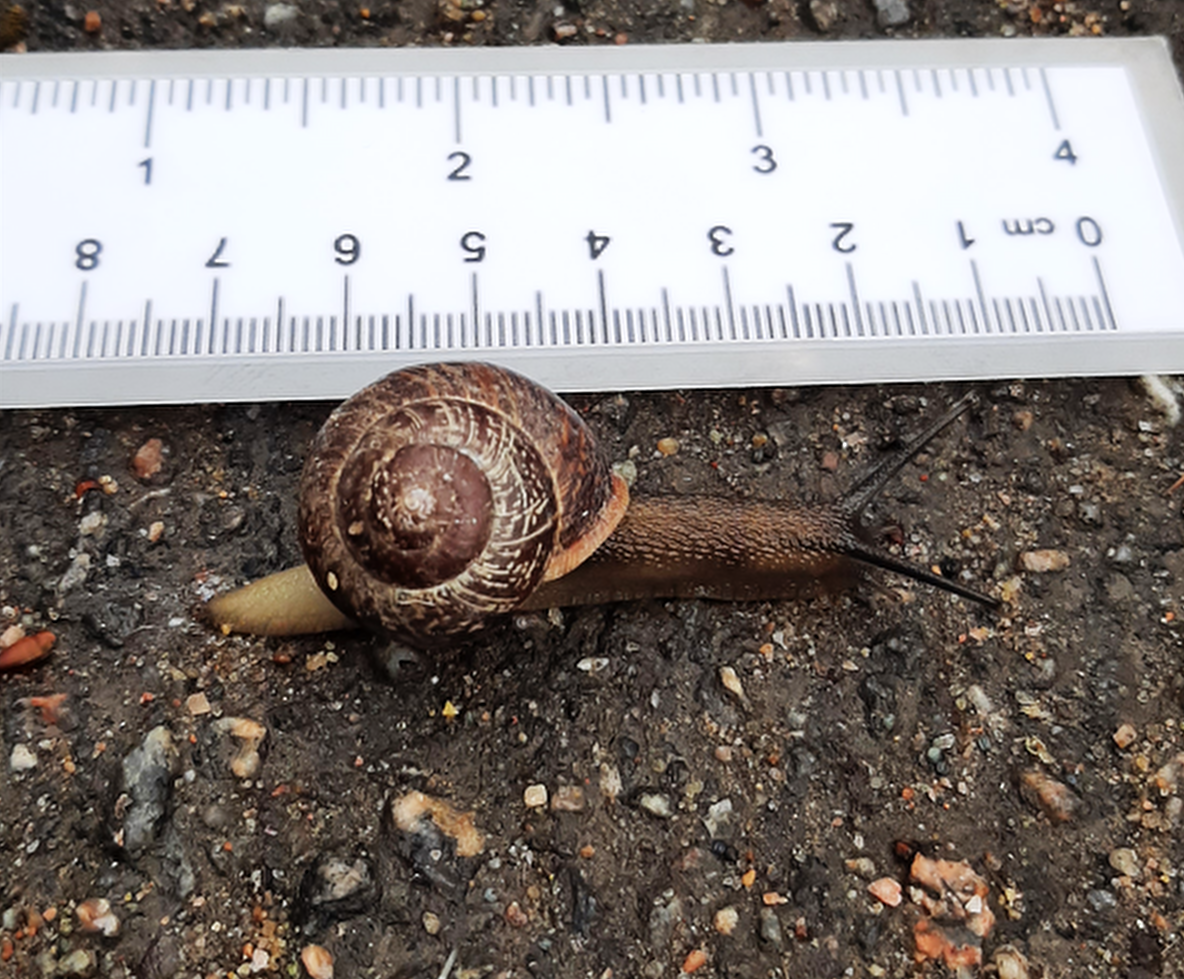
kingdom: Animalia
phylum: Mollusca
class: Gastropoda
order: Stylommatophora
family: Helicidae
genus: Arianta
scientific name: Arianta arbustorum
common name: Copse snail
